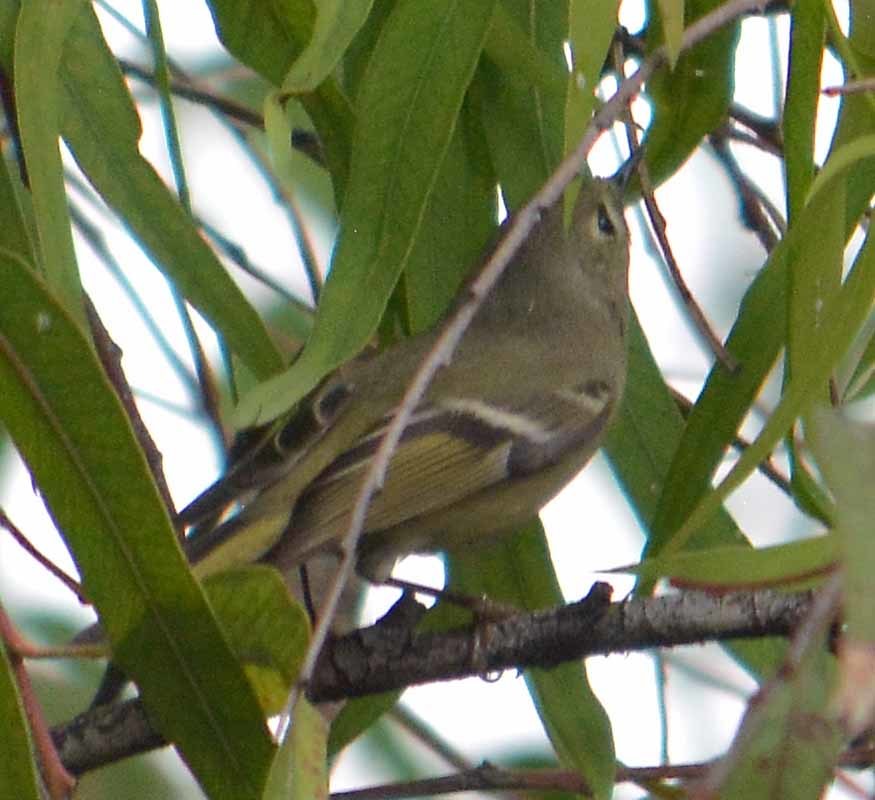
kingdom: Animalia
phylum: Chordata
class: Aves
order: Passeriformes
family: Regulidae
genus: Regulus
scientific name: Regulus calendula
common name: Ruby-crowned kinglet
